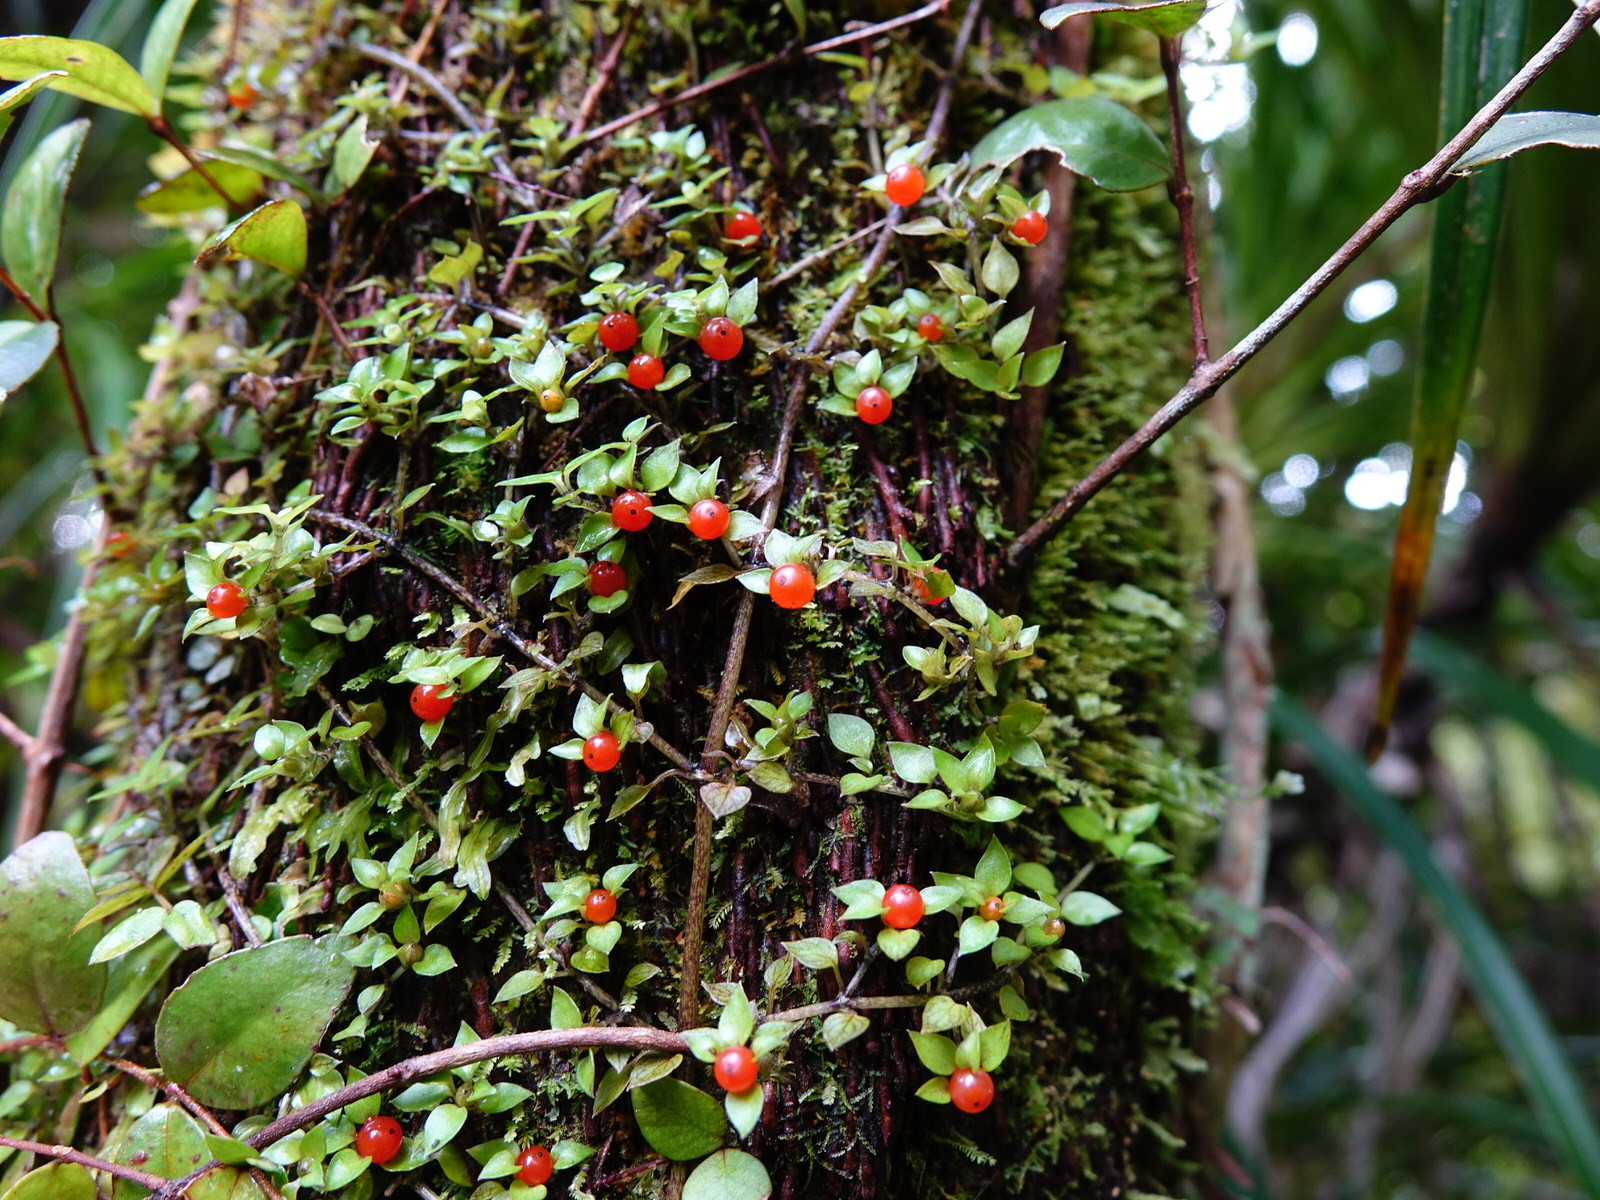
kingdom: Plantae
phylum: Tracheophyta
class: Magnoliopsida
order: Gentianales
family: Rubiaceae
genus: Nertera
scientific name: Nertera granadensis
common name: Beadplant
